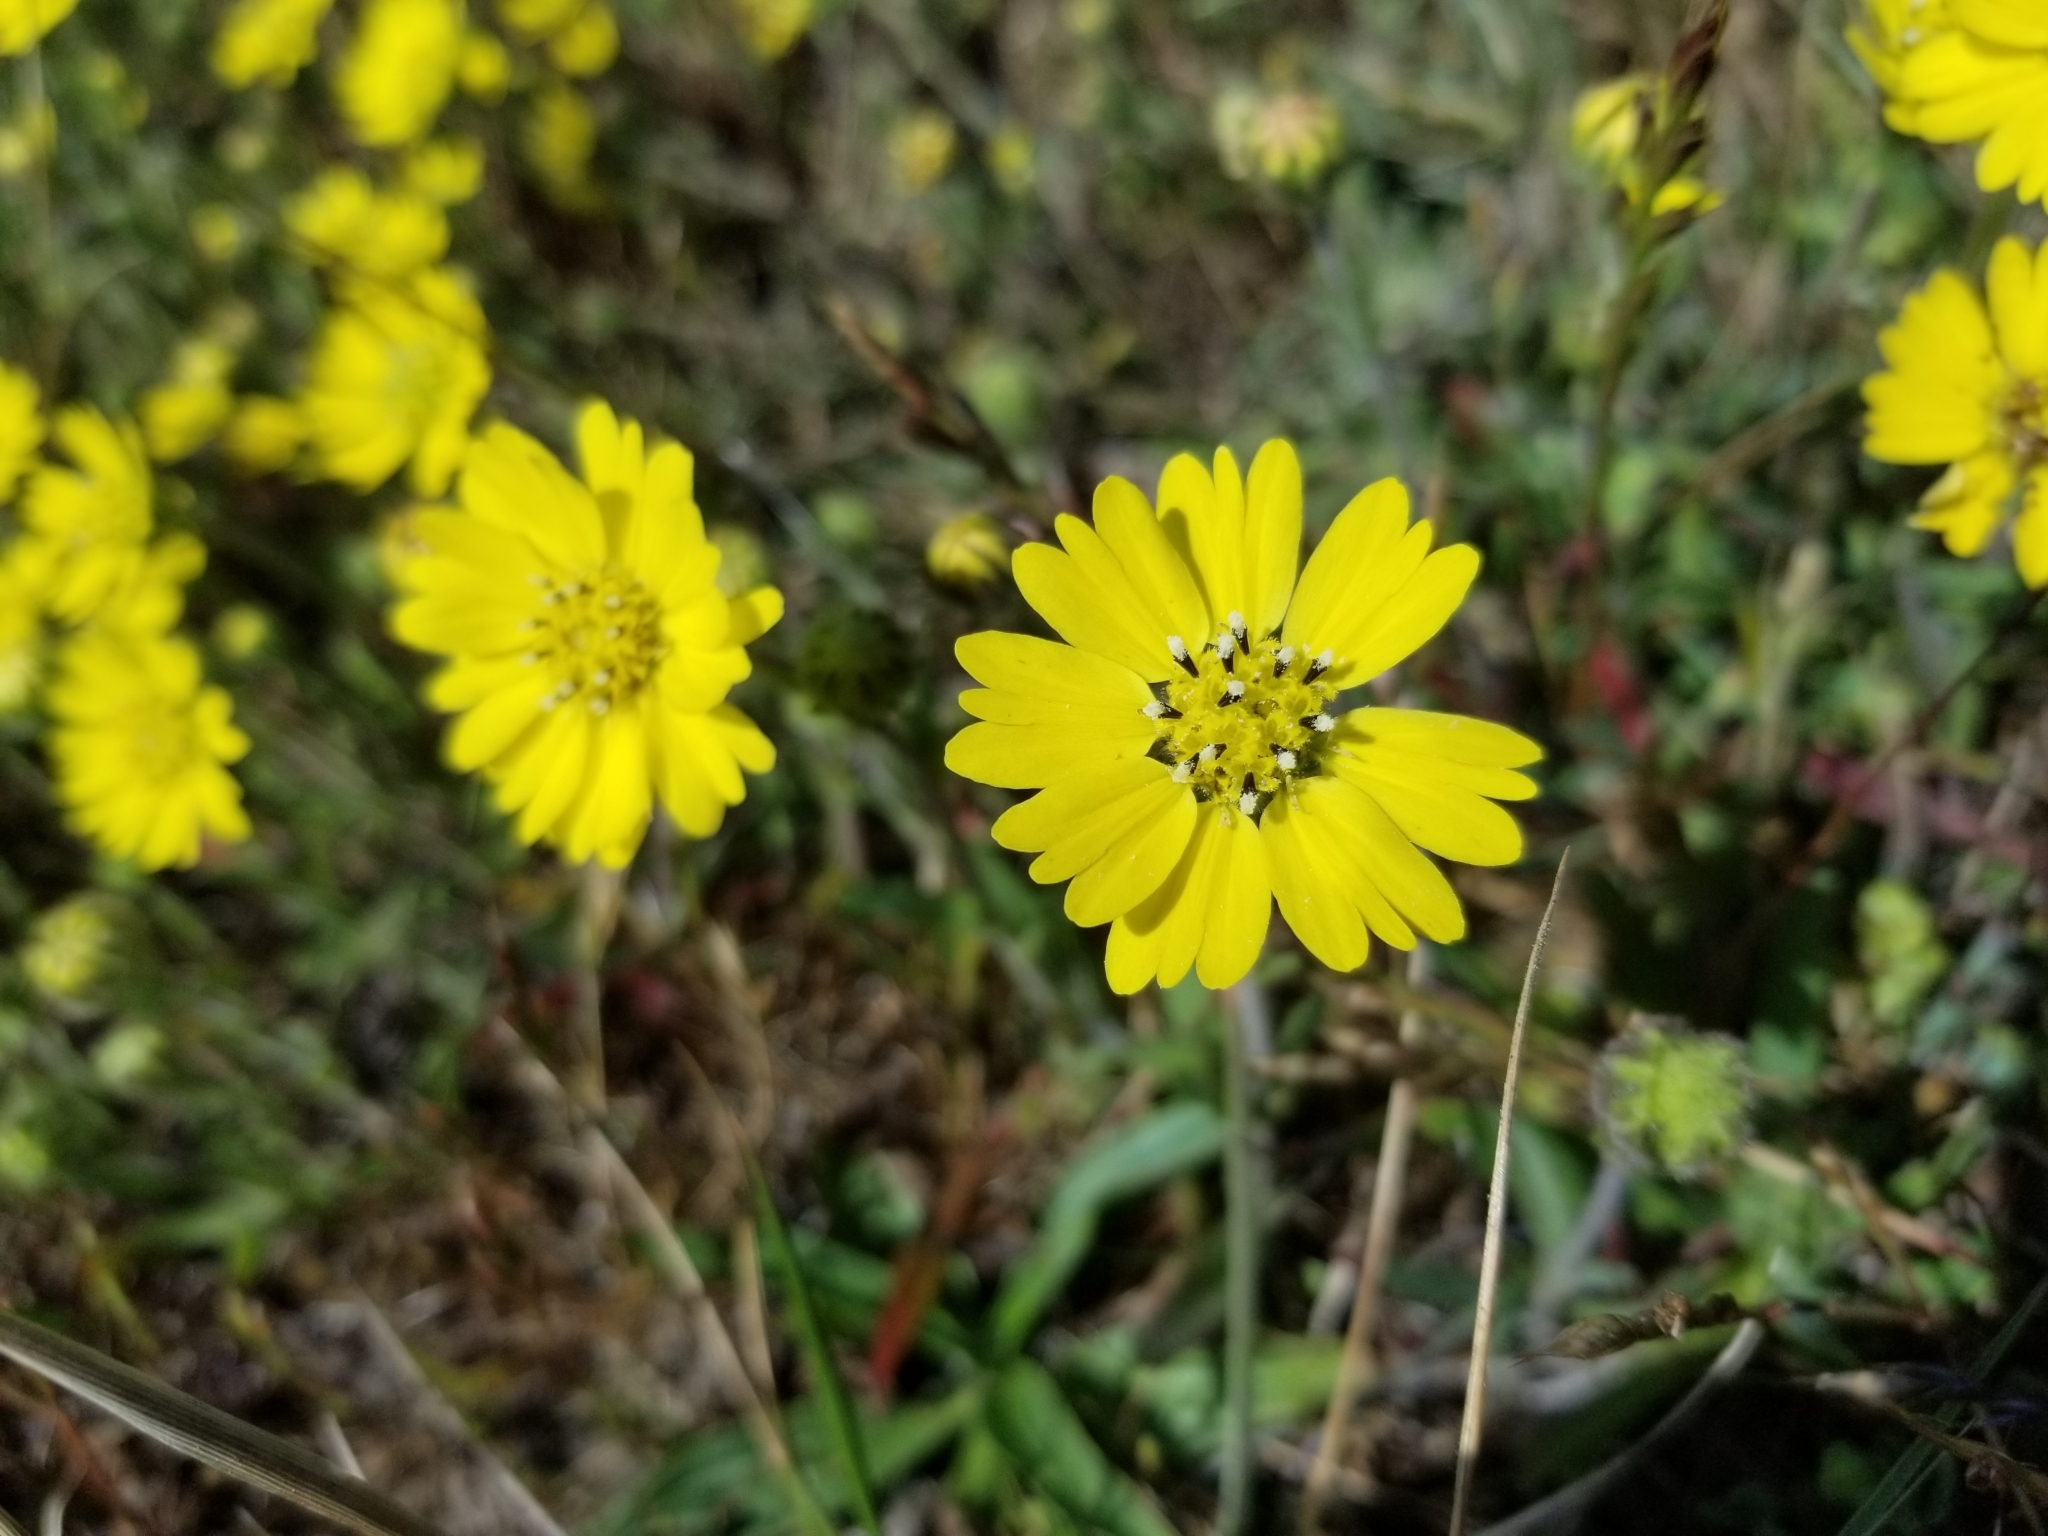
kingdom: Plantae
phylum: Tracheophyta
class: Magnoliopsida
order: Asterales
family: Asteraceae
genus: Hemizonia
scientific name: Hemizonia congesta
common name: Hayfield tarweed
